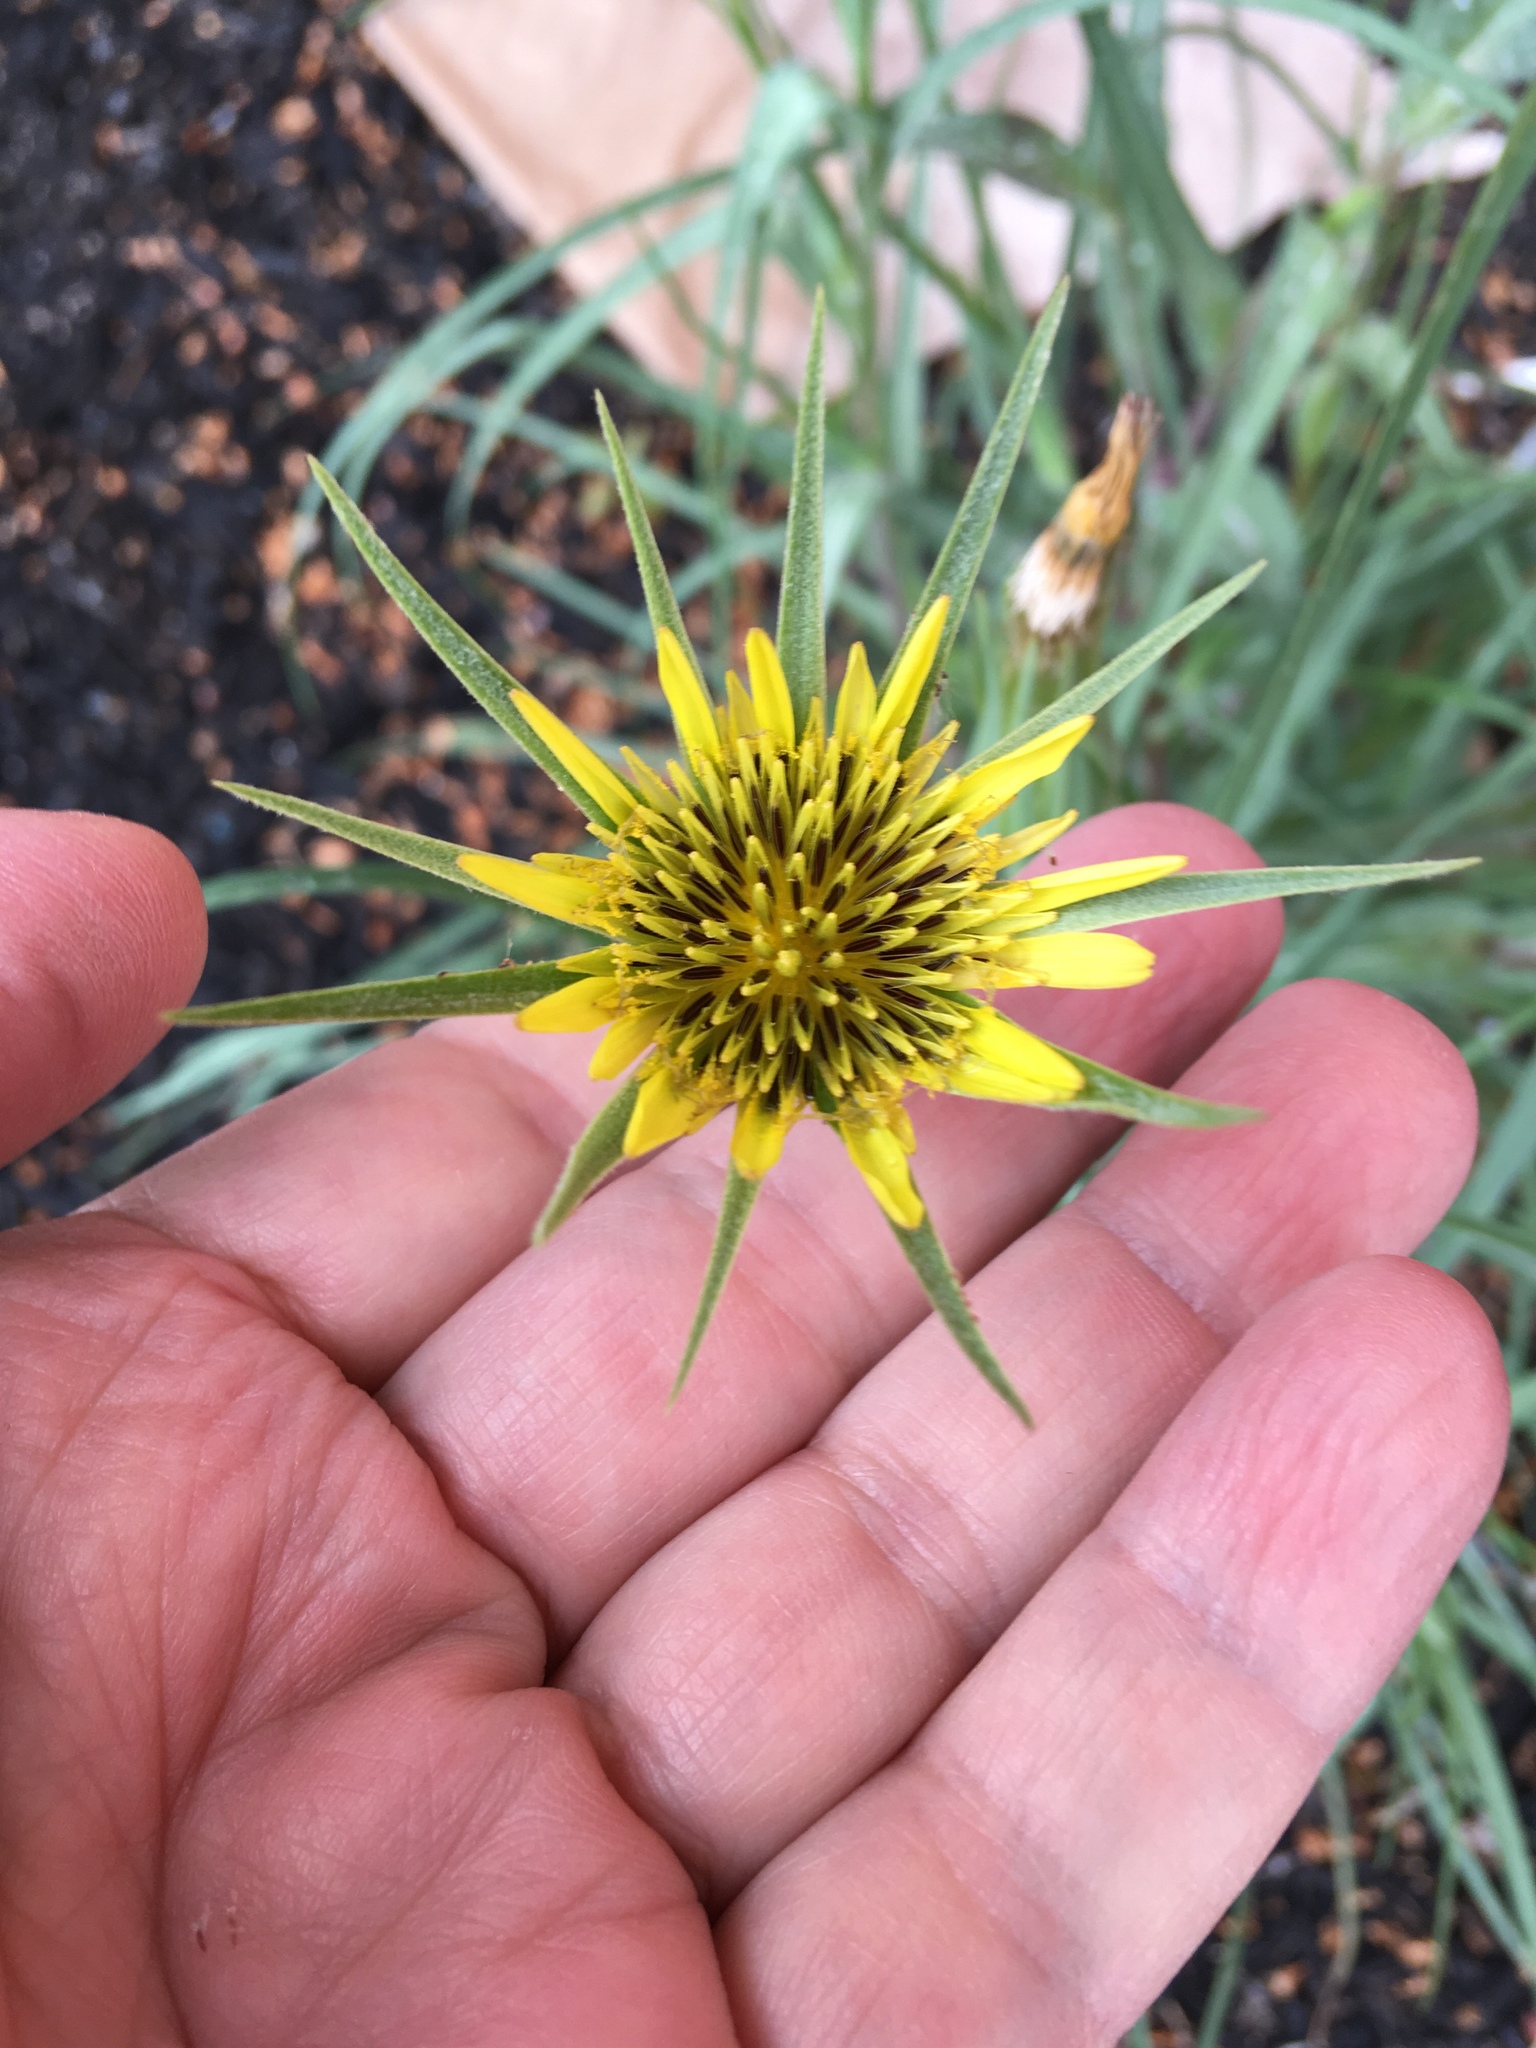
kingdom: Plantae
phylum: Tracheophyta
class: Magnoliopsida
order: Asterales
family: Asteraceae
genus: Tragopogon
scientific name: Tragopogon dubius
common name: Yellow salsify
